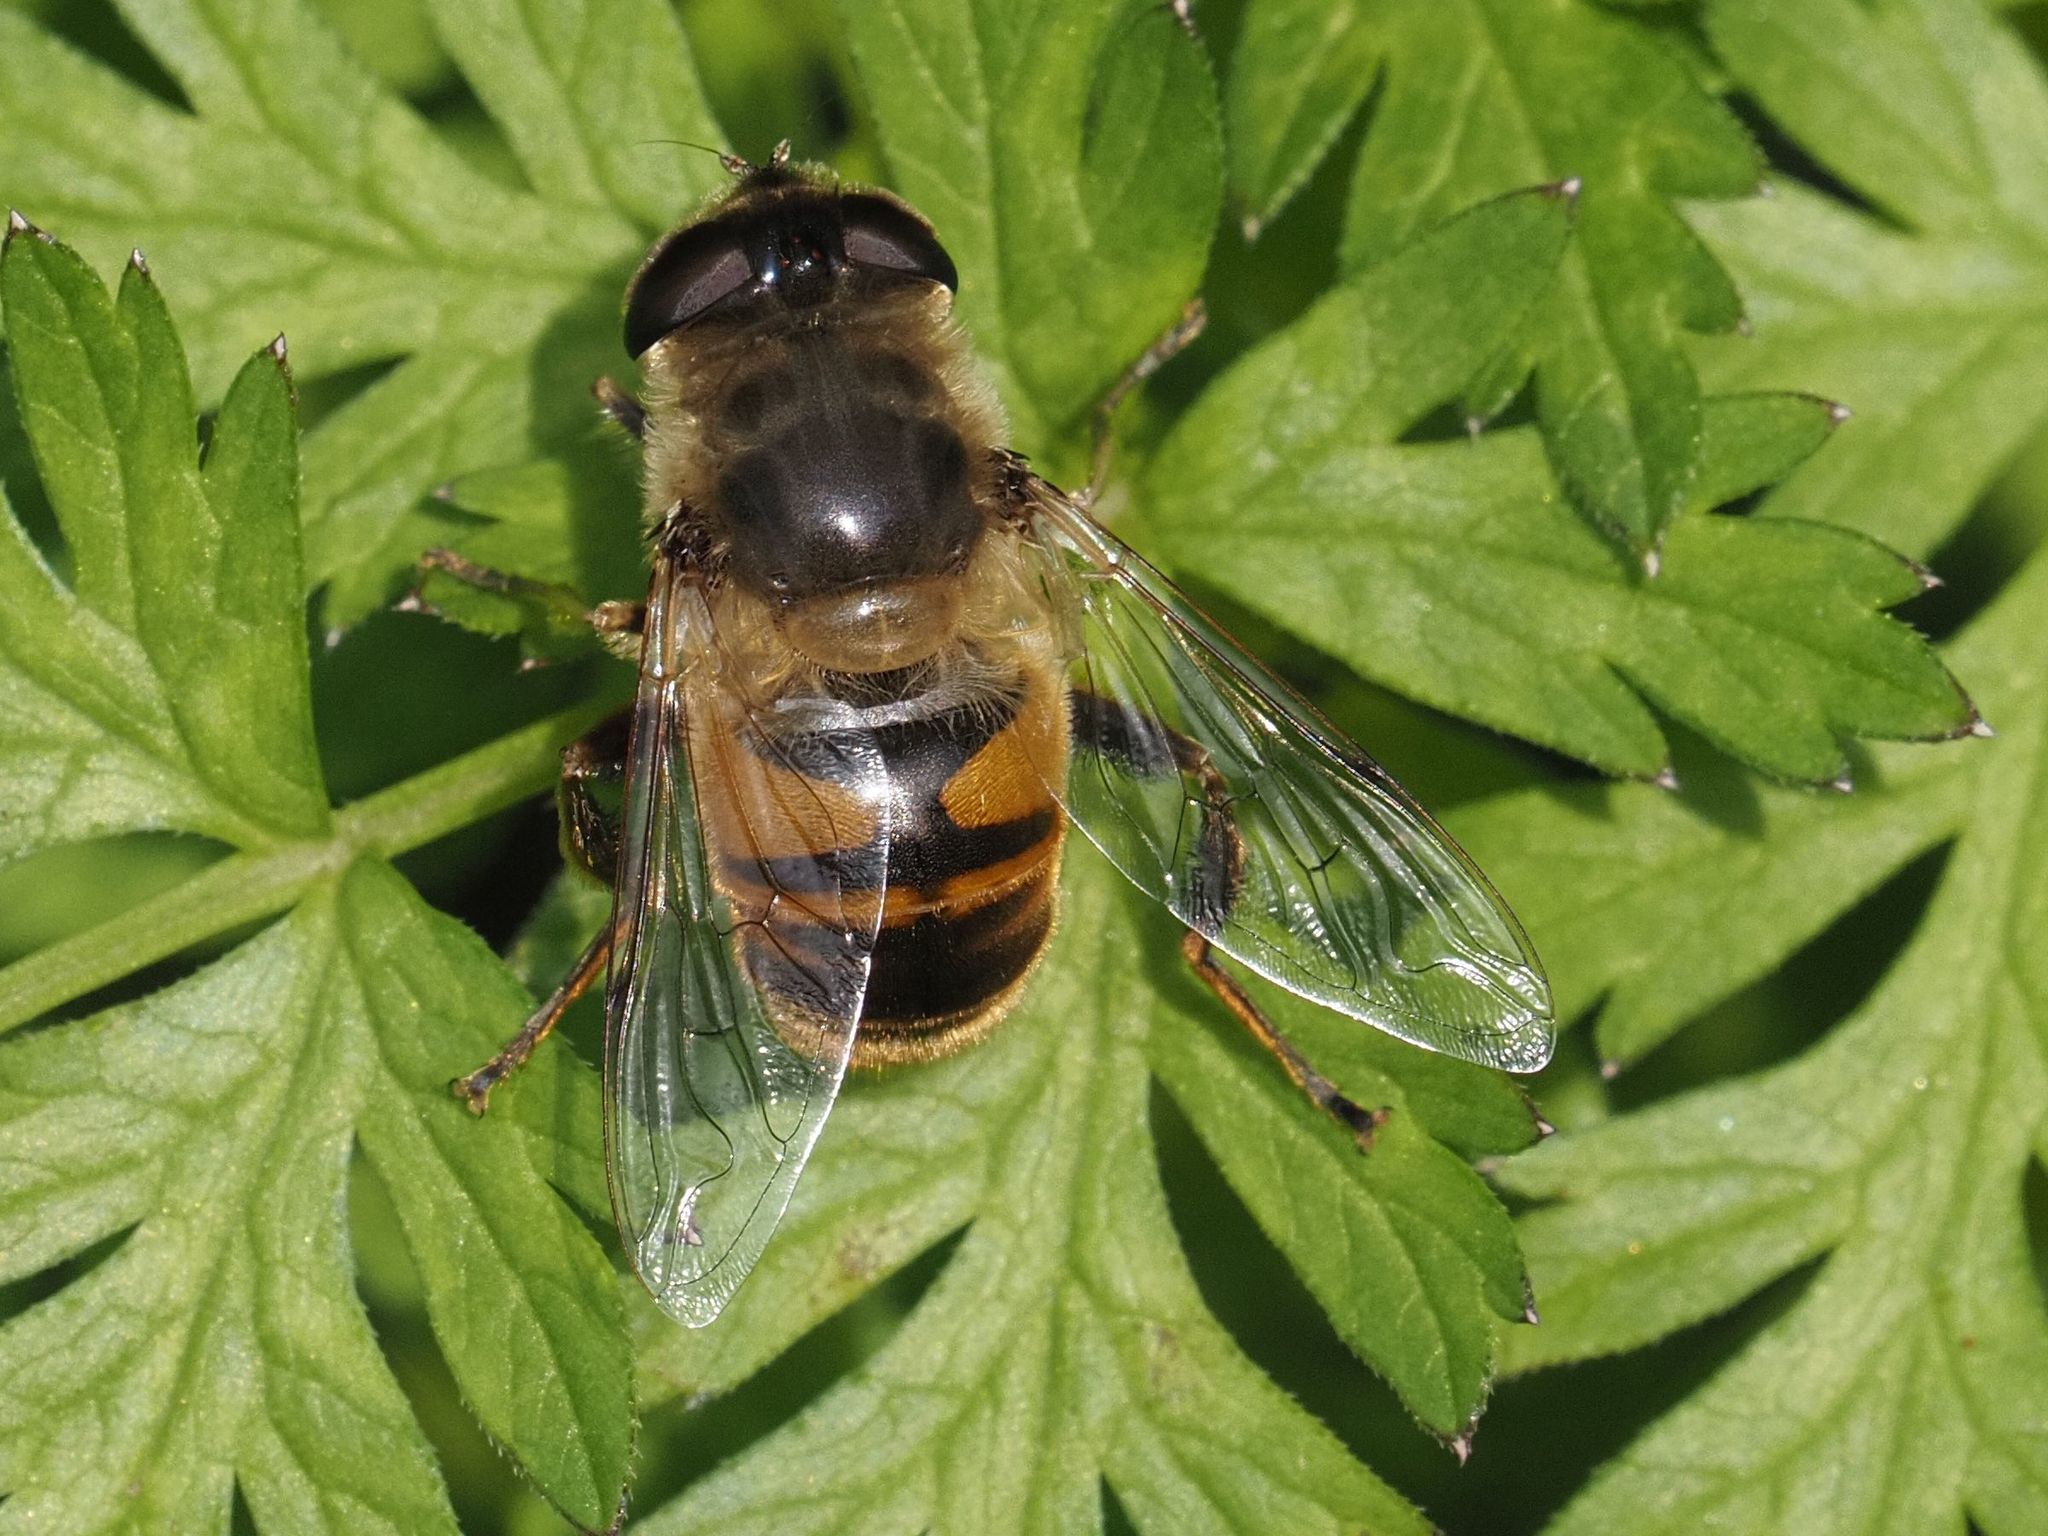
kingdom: Animalia
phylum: Arthropoda
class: Insecta
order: Diptera
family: Syrphidae
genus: Eristalis
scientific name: Eristalis tenax
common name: Drone fly
